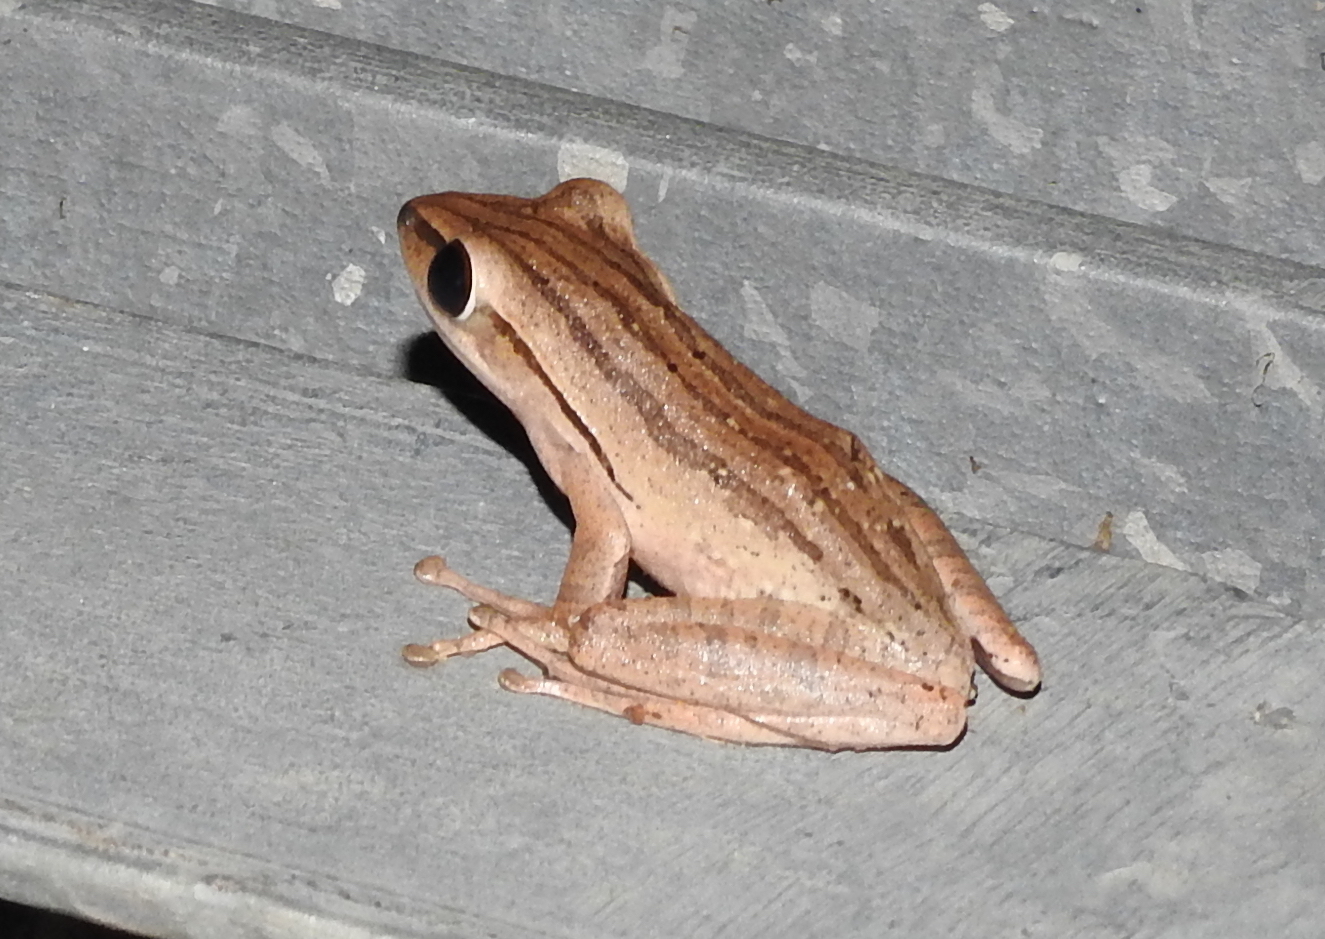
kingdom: Animalia
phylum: Chordata
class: Amphibia
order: Anura
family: Rhacophoridae
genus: Polypedates
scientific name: Polypedates leucomystax
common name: Common tree frog/four-lined tree frog
